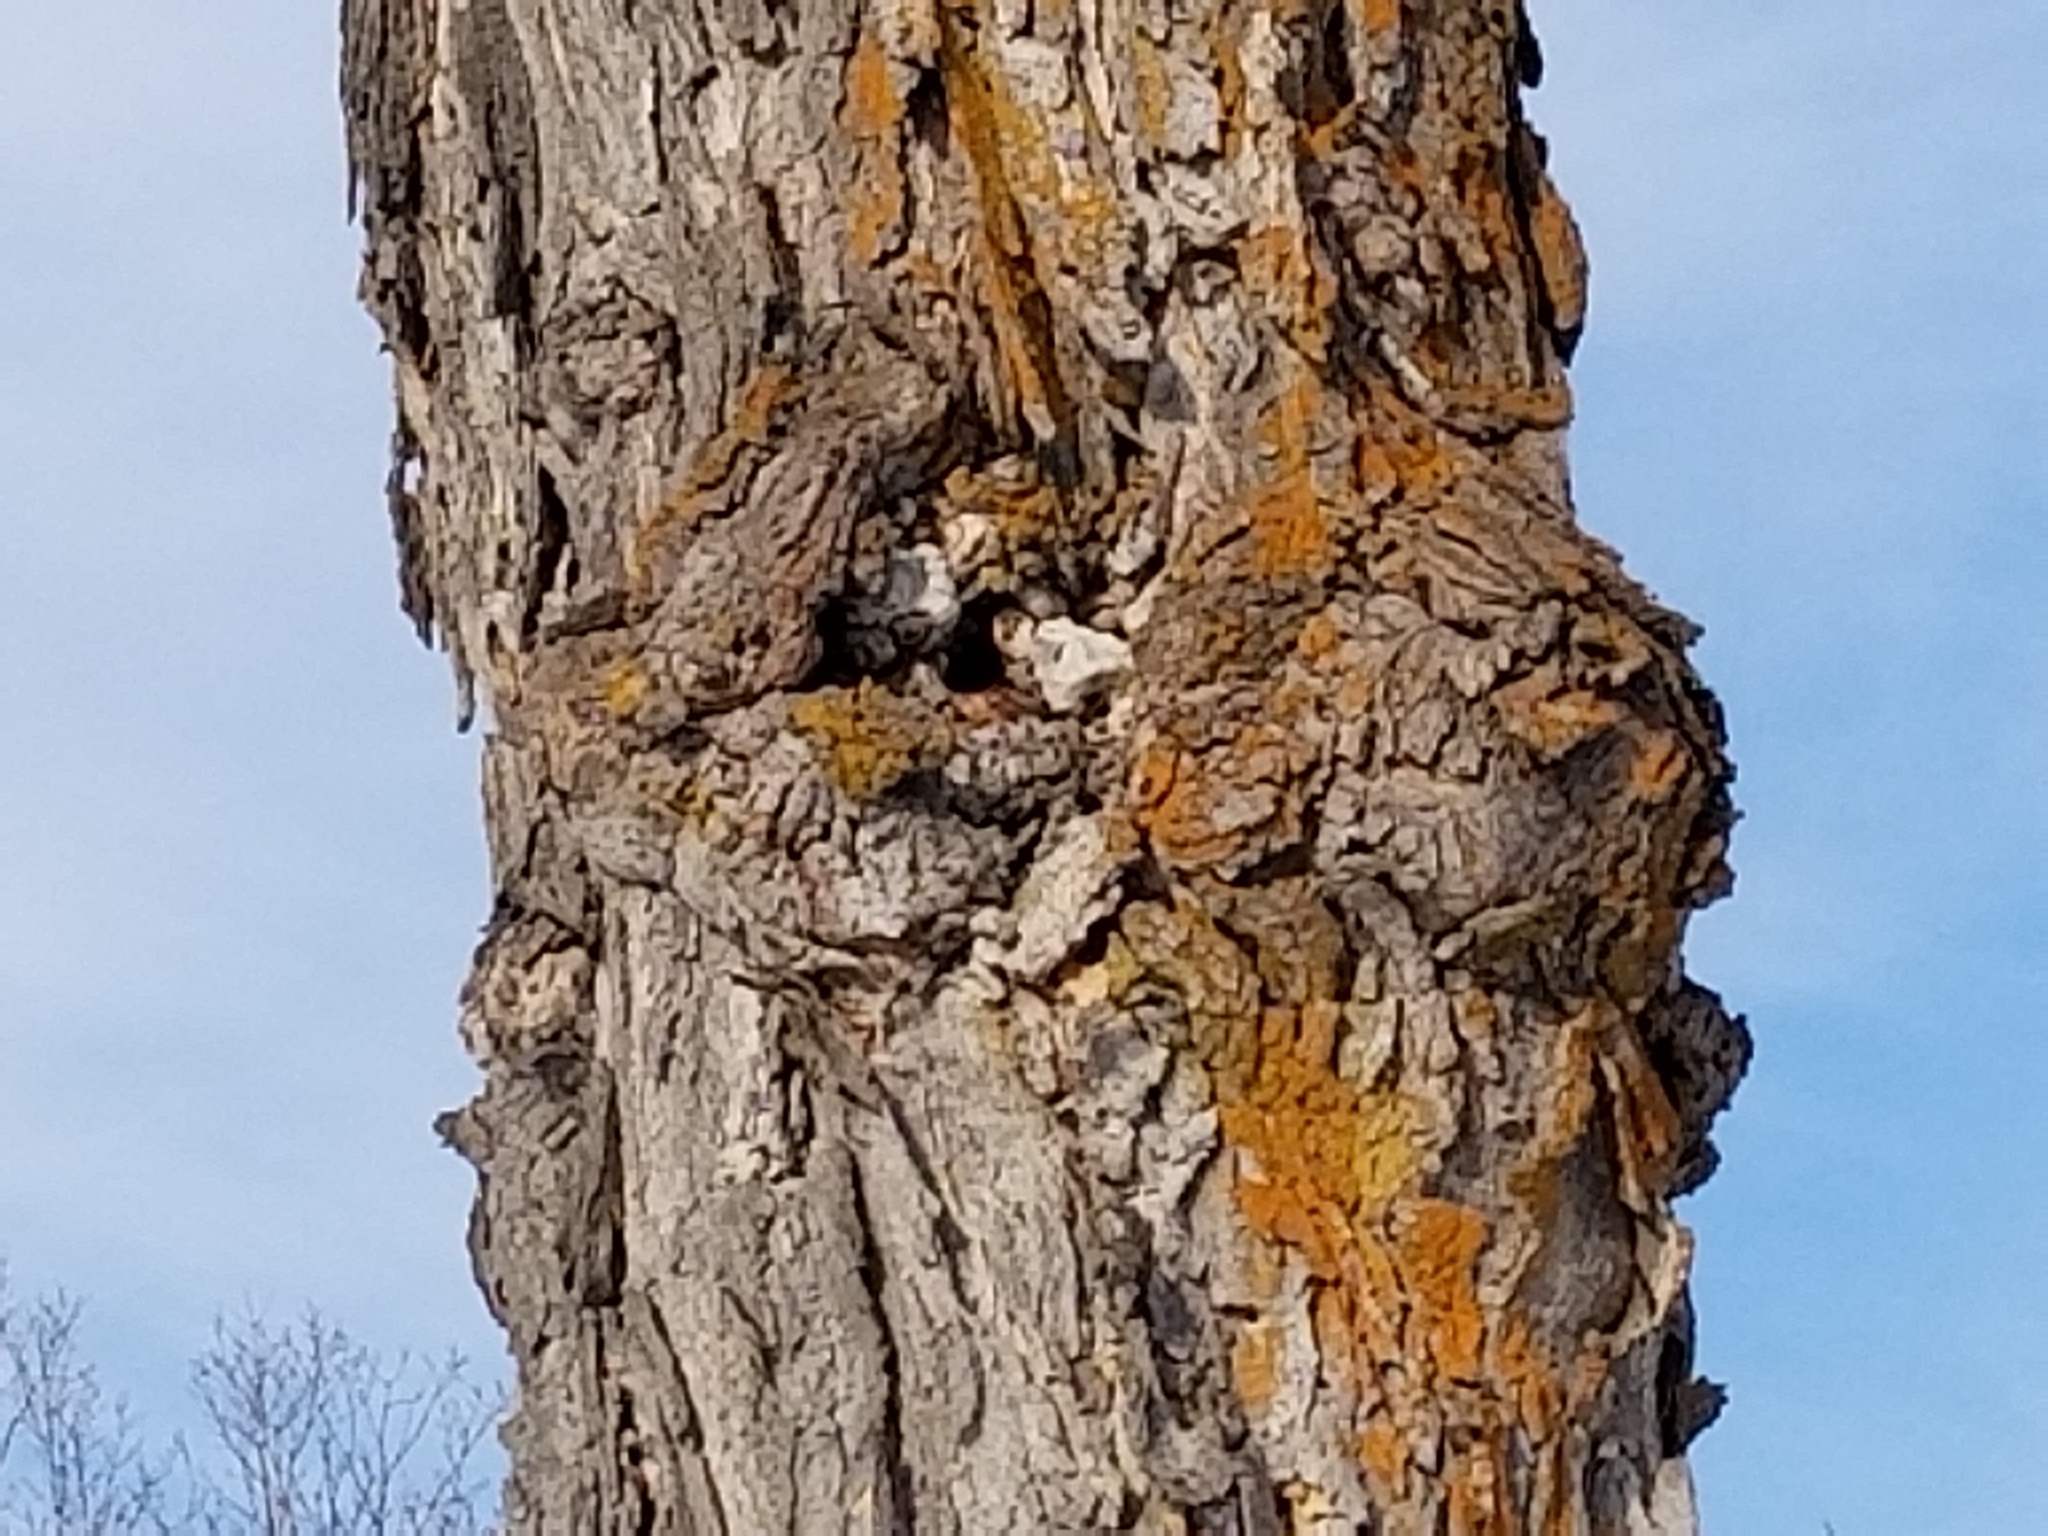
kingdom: Plantae
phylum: Tracheophyta
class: Magnoliopsida
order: Sapindales
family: Sapindaceae
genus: Acer
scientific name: Acer saccharum
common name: Sugar maple
